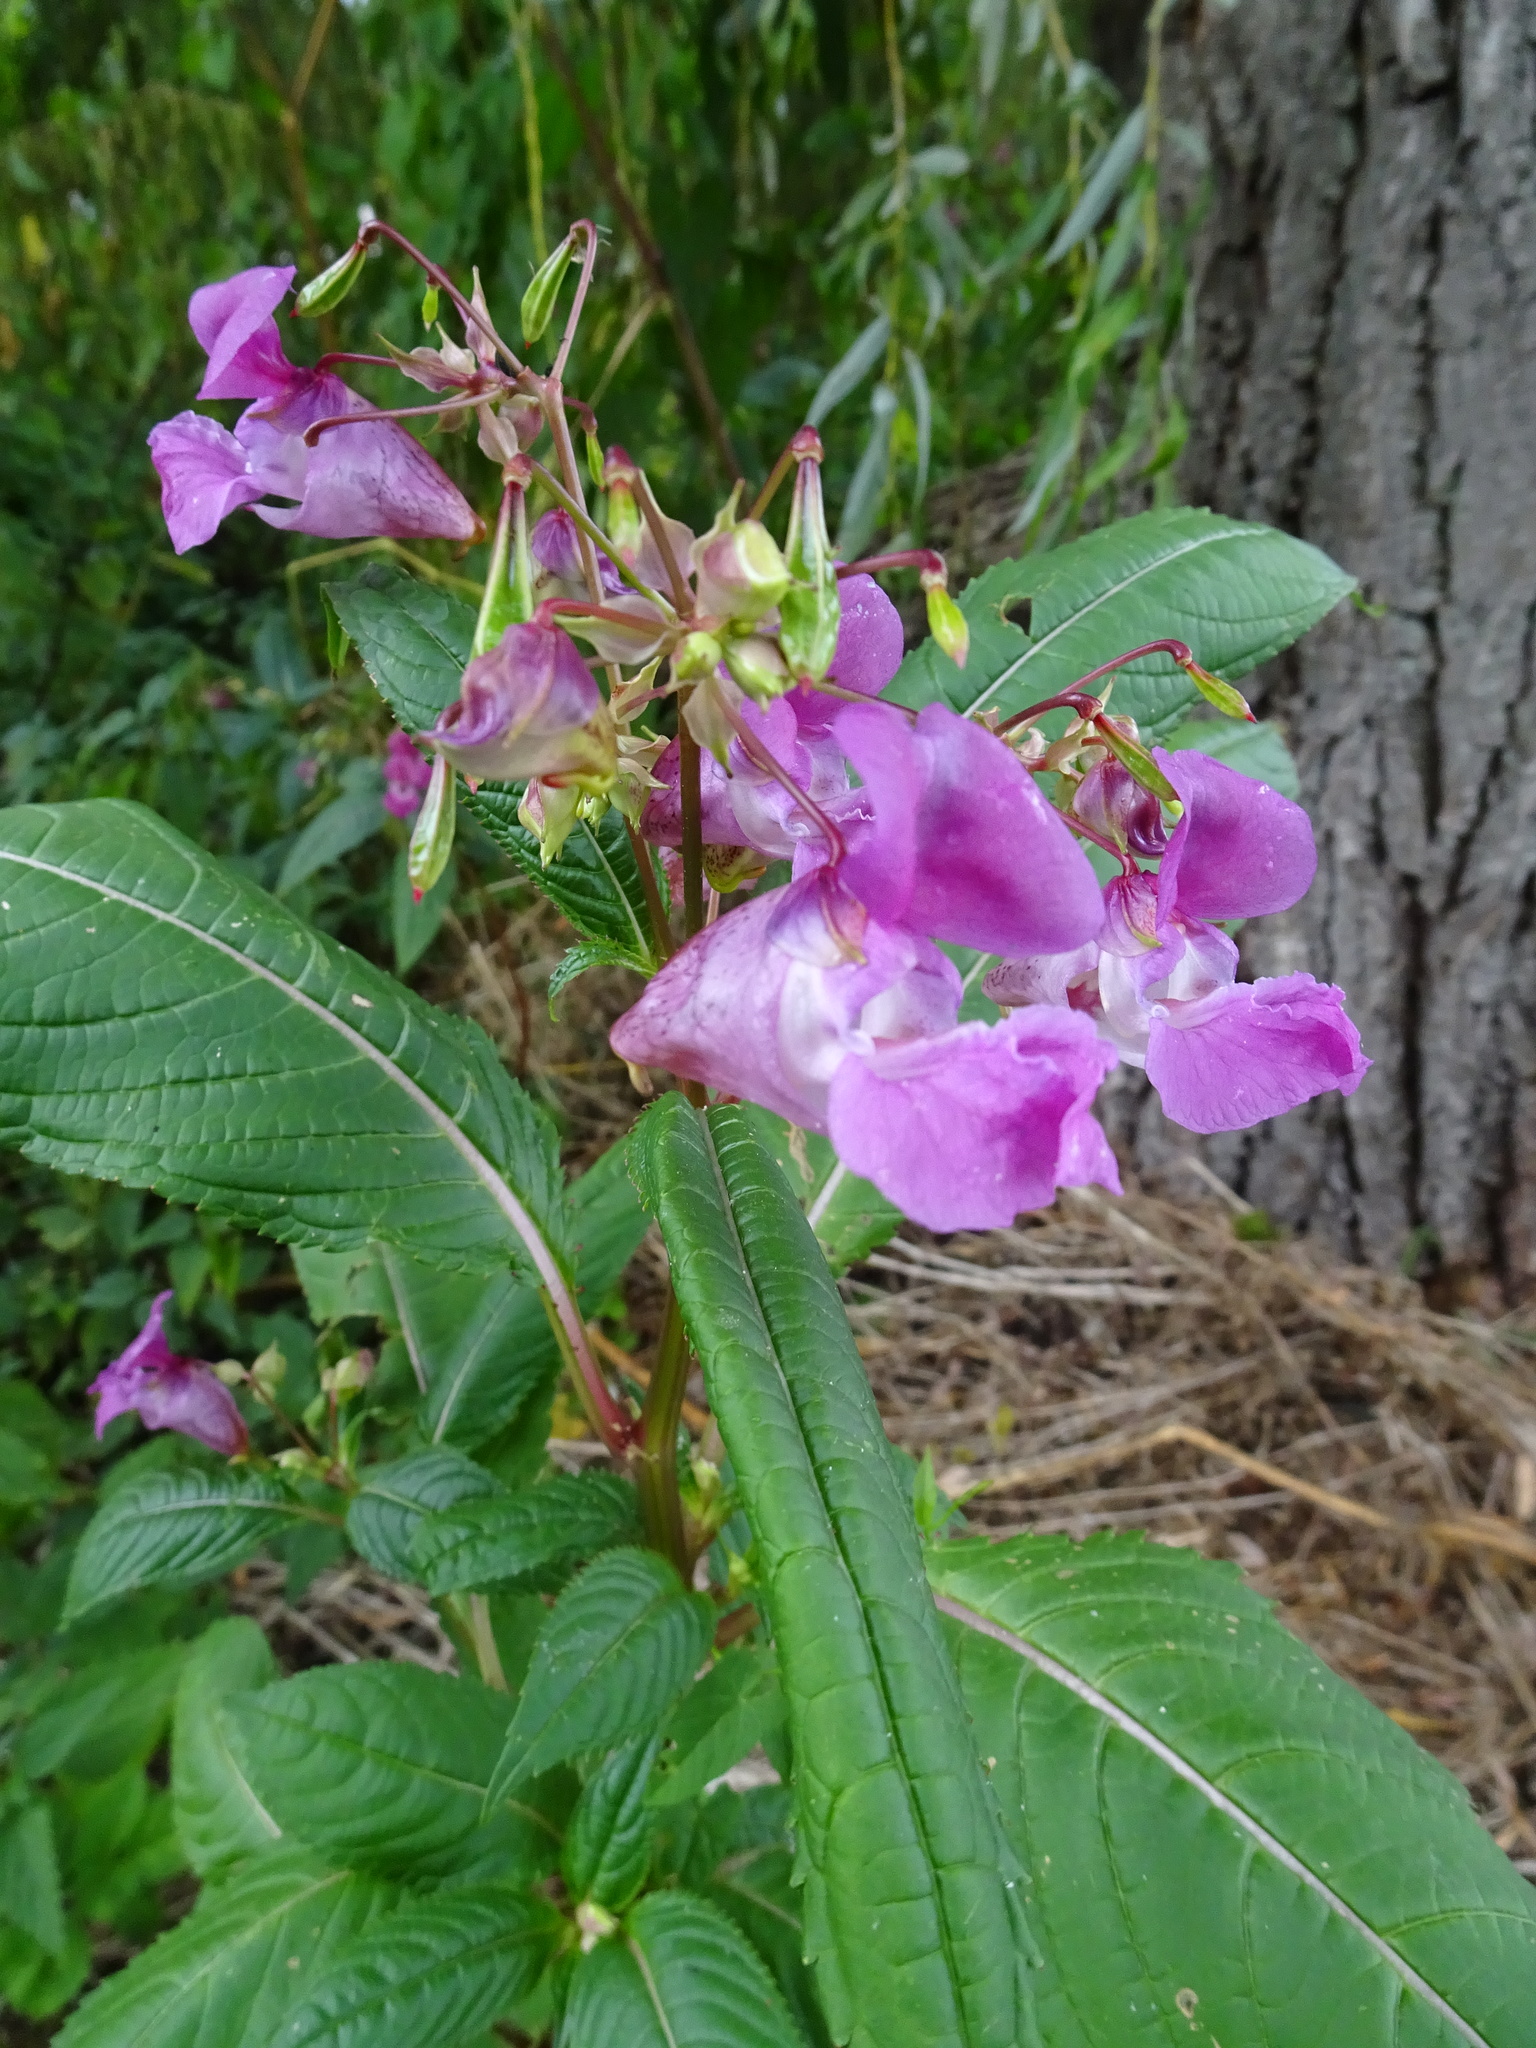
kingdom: Plantae
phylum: Tracheophyta
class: Magnoliopsida
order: Ericales
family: Balsaminaceae
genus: Impatiens
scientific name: Impatiens glandulifera
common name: Himalayan balsam
